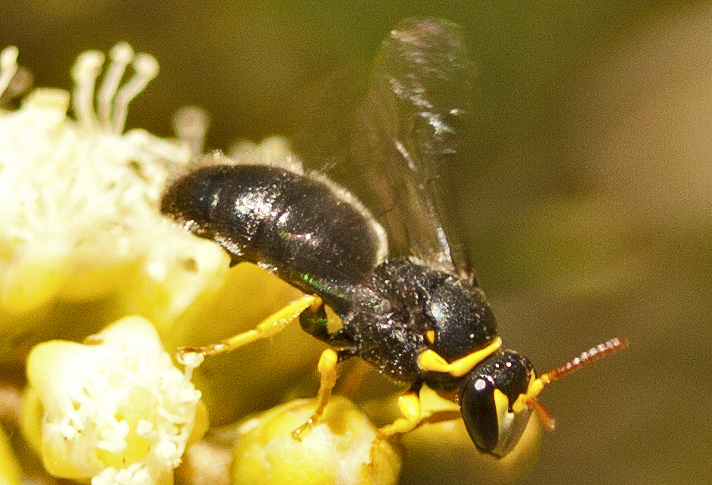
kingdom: Animalia
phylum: Arthropoda
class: Insecta
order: Hymenoptera
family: Colletidae
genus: Hylaeus
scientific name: Hylaeus euxanthus
